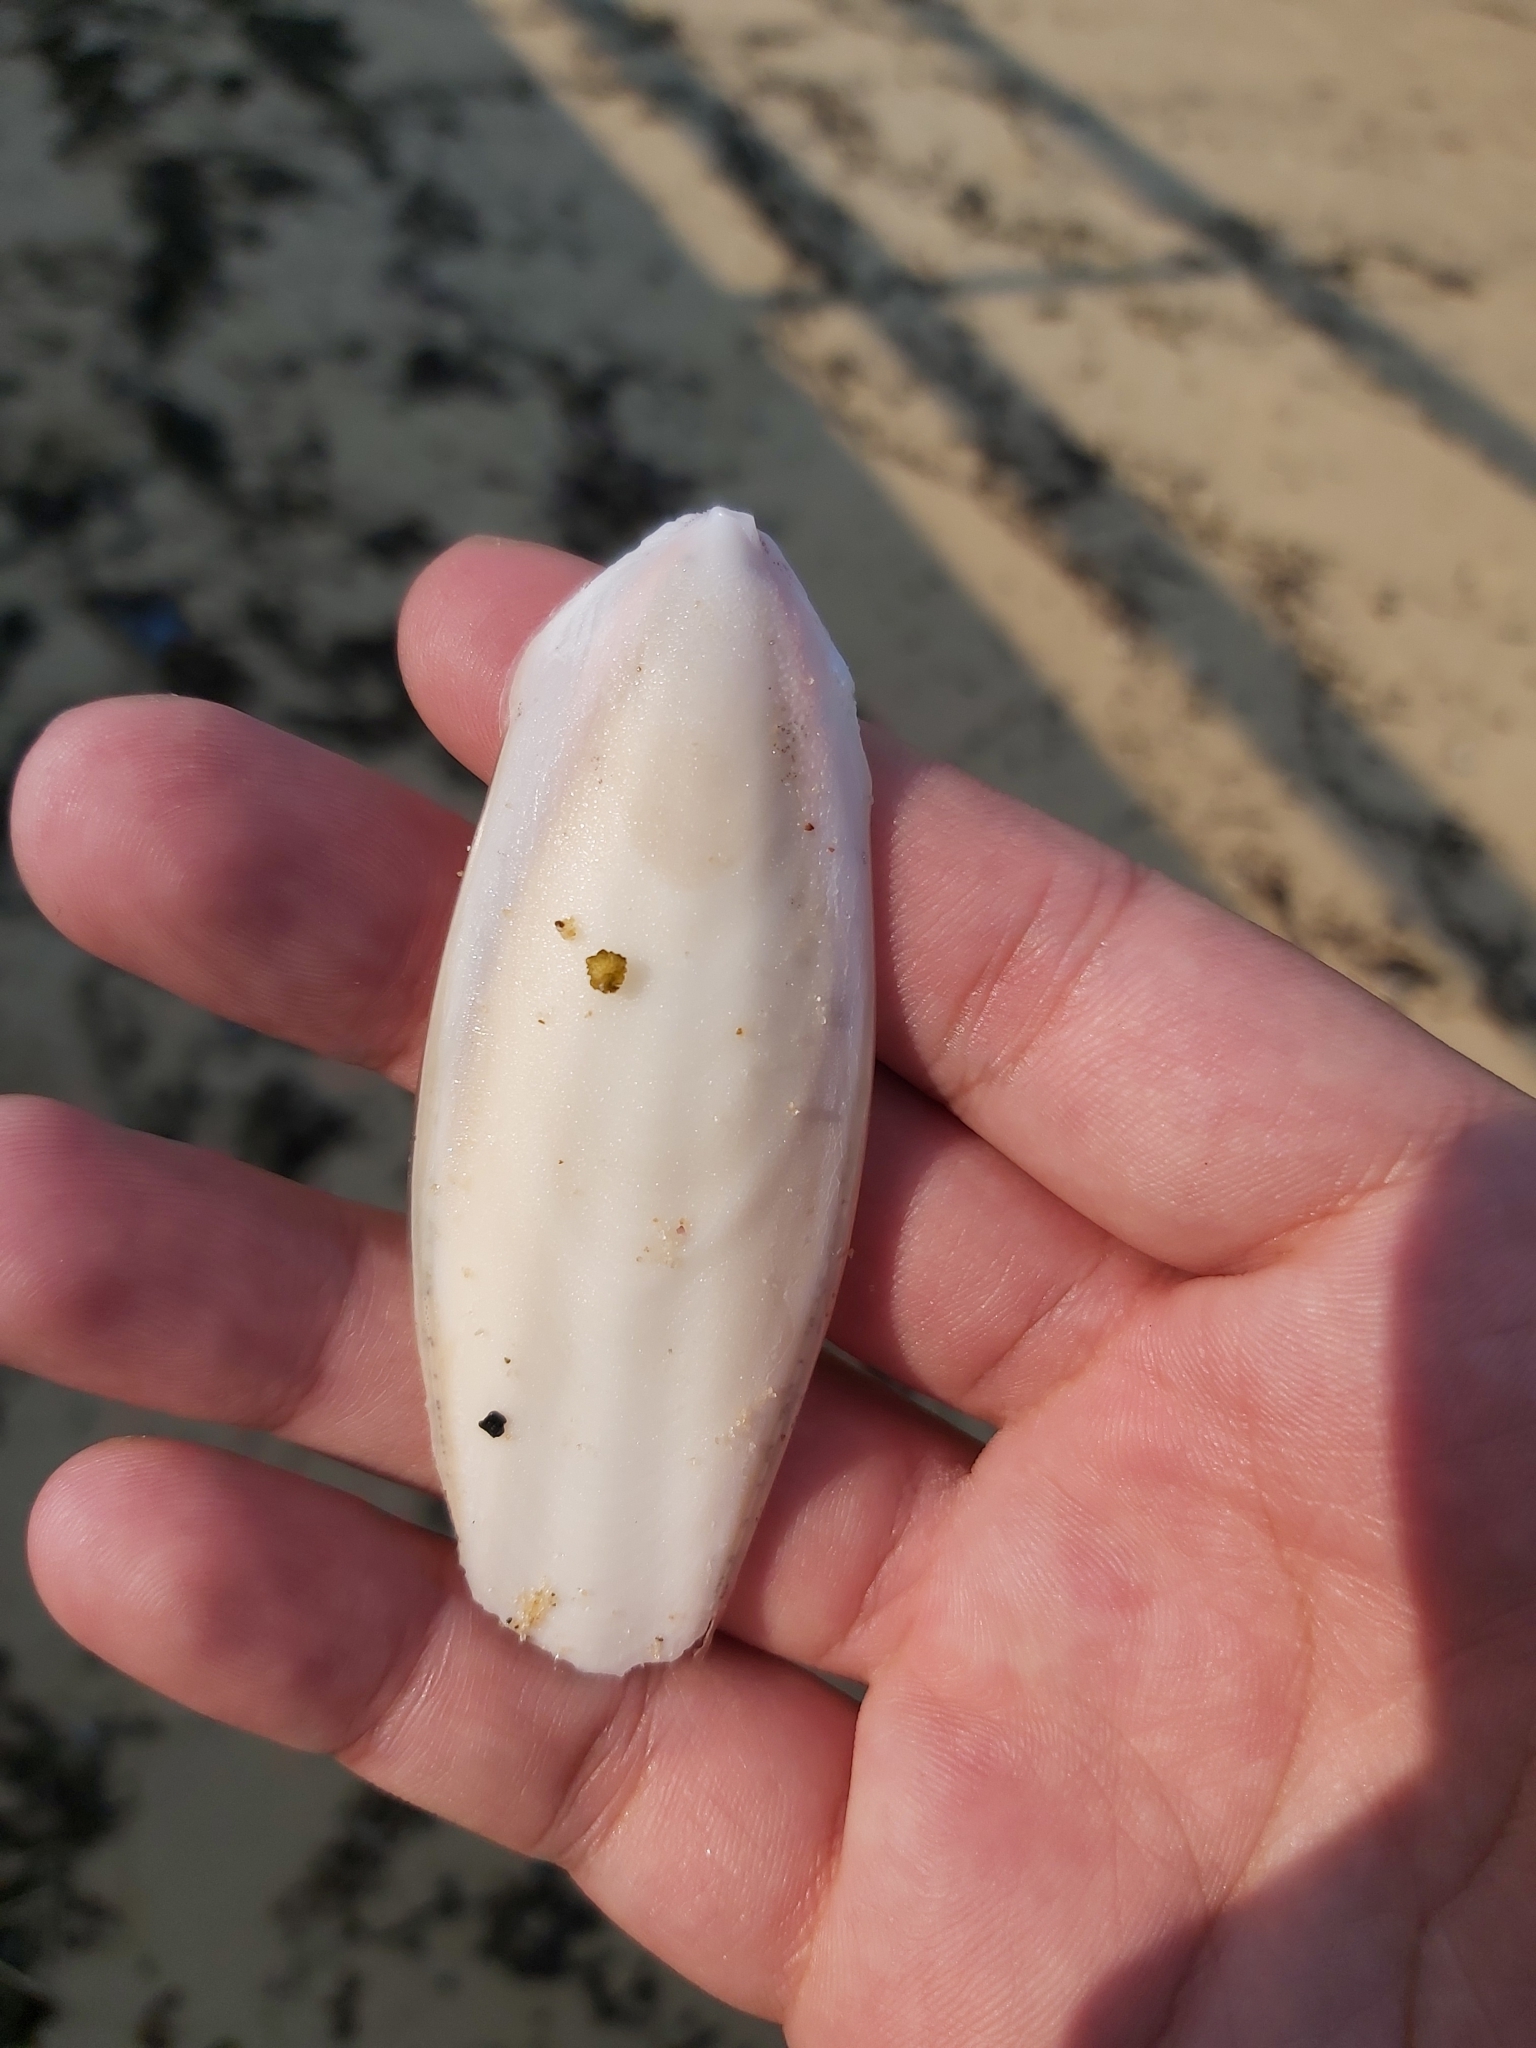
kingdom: Animalia
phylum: Mollusca
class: Cephalopoda
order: Sepiida
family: Sepiidae
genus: Ascarosepion
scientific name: Ascarosepion rozella
